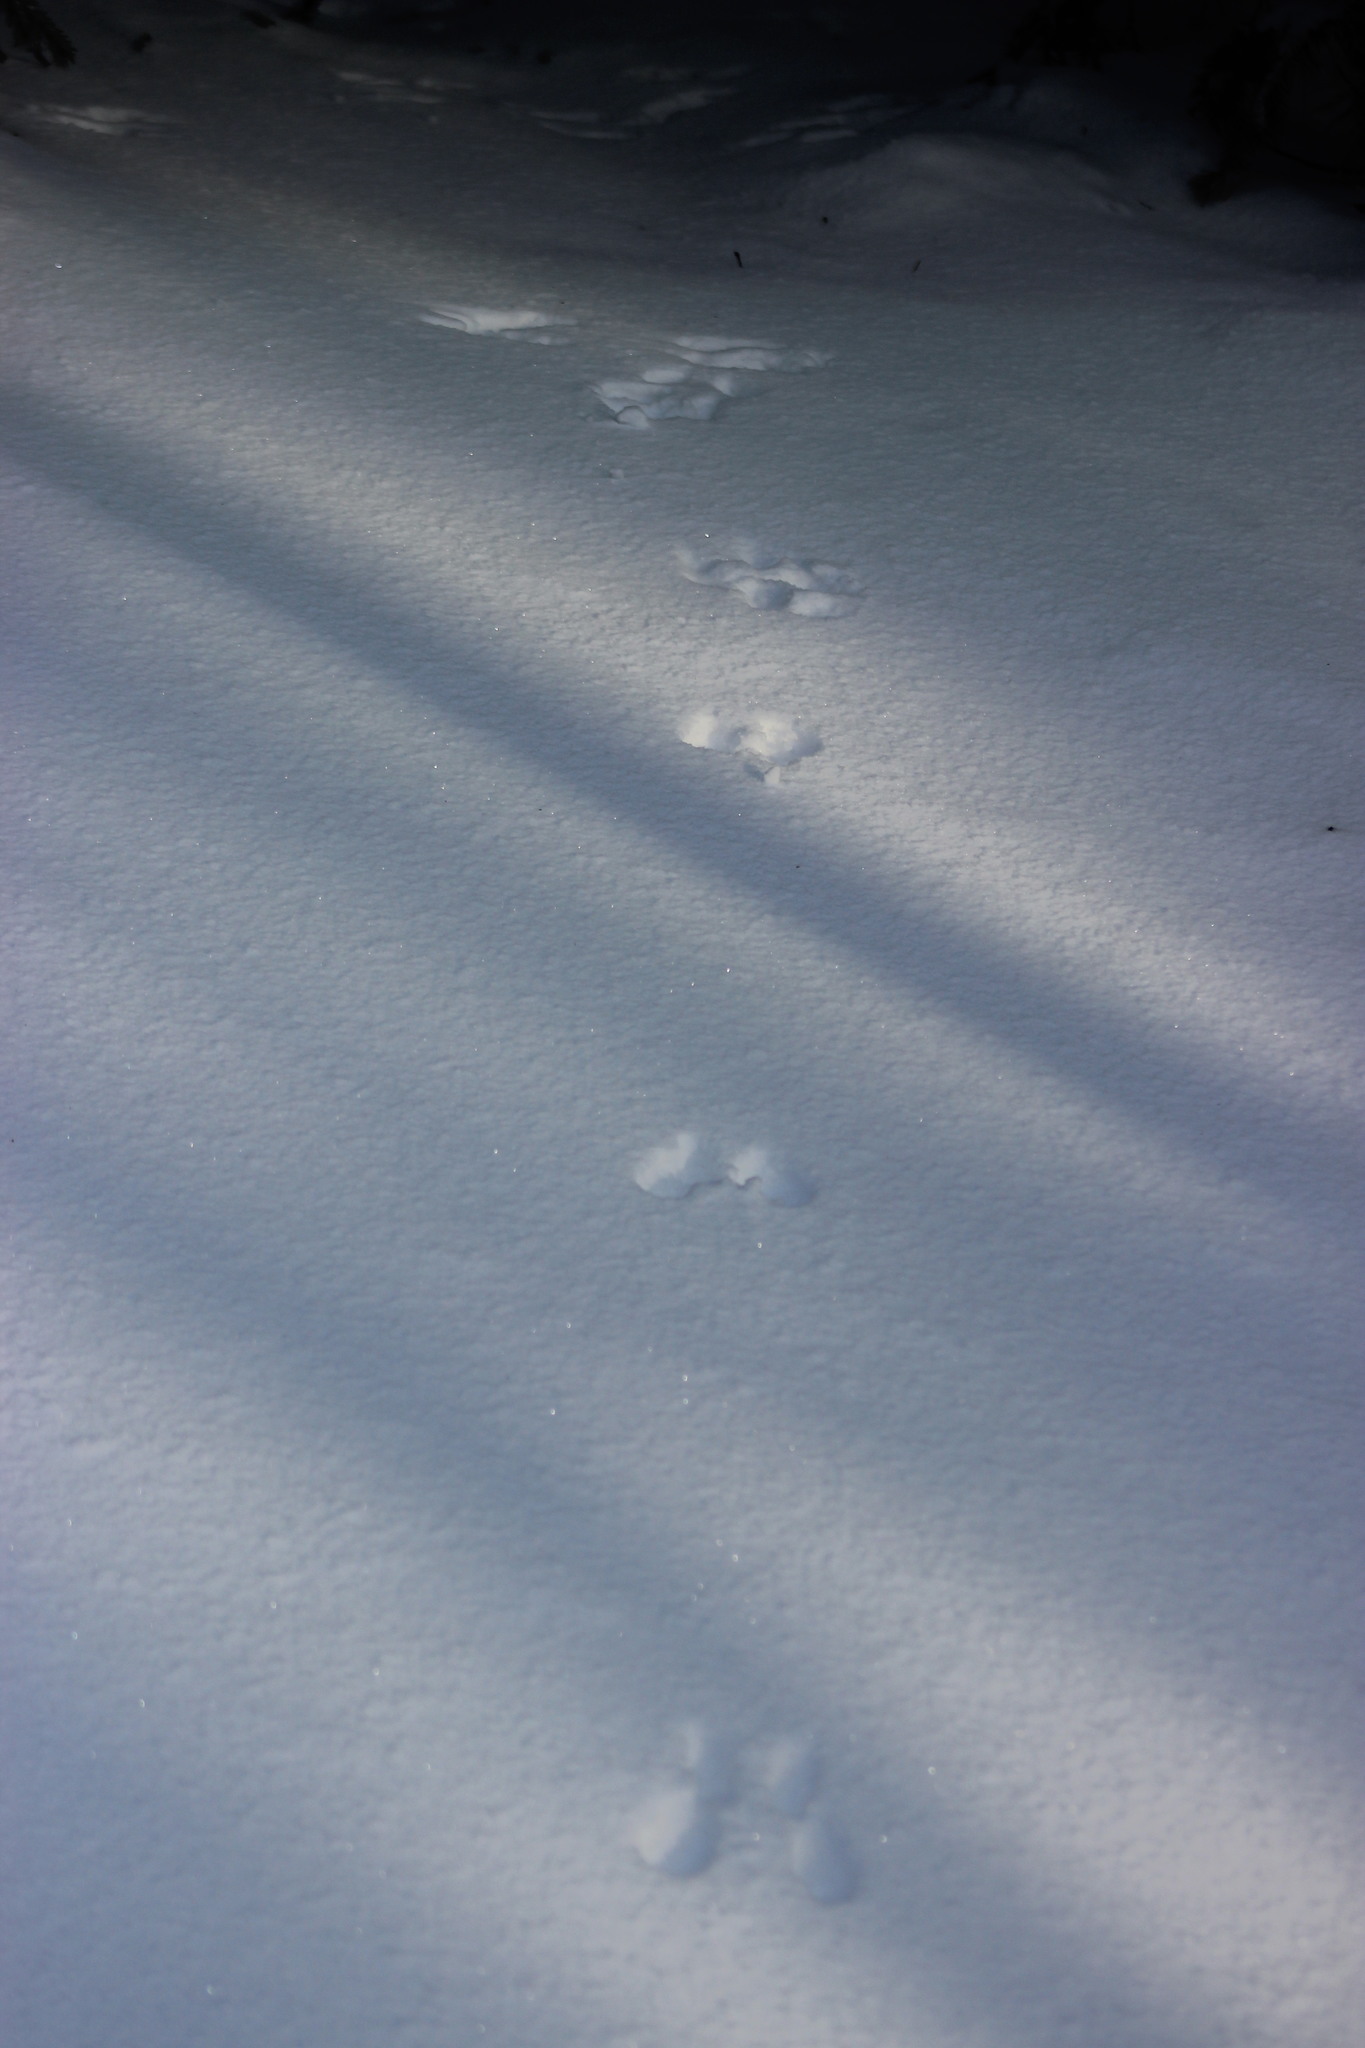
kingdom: Animalia
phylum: Chordata
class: Mammalia
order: Rodentia
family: Sciuridae
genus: Sciurus
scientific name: Sciurus vulgaris
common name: Eurasian red squirrel
